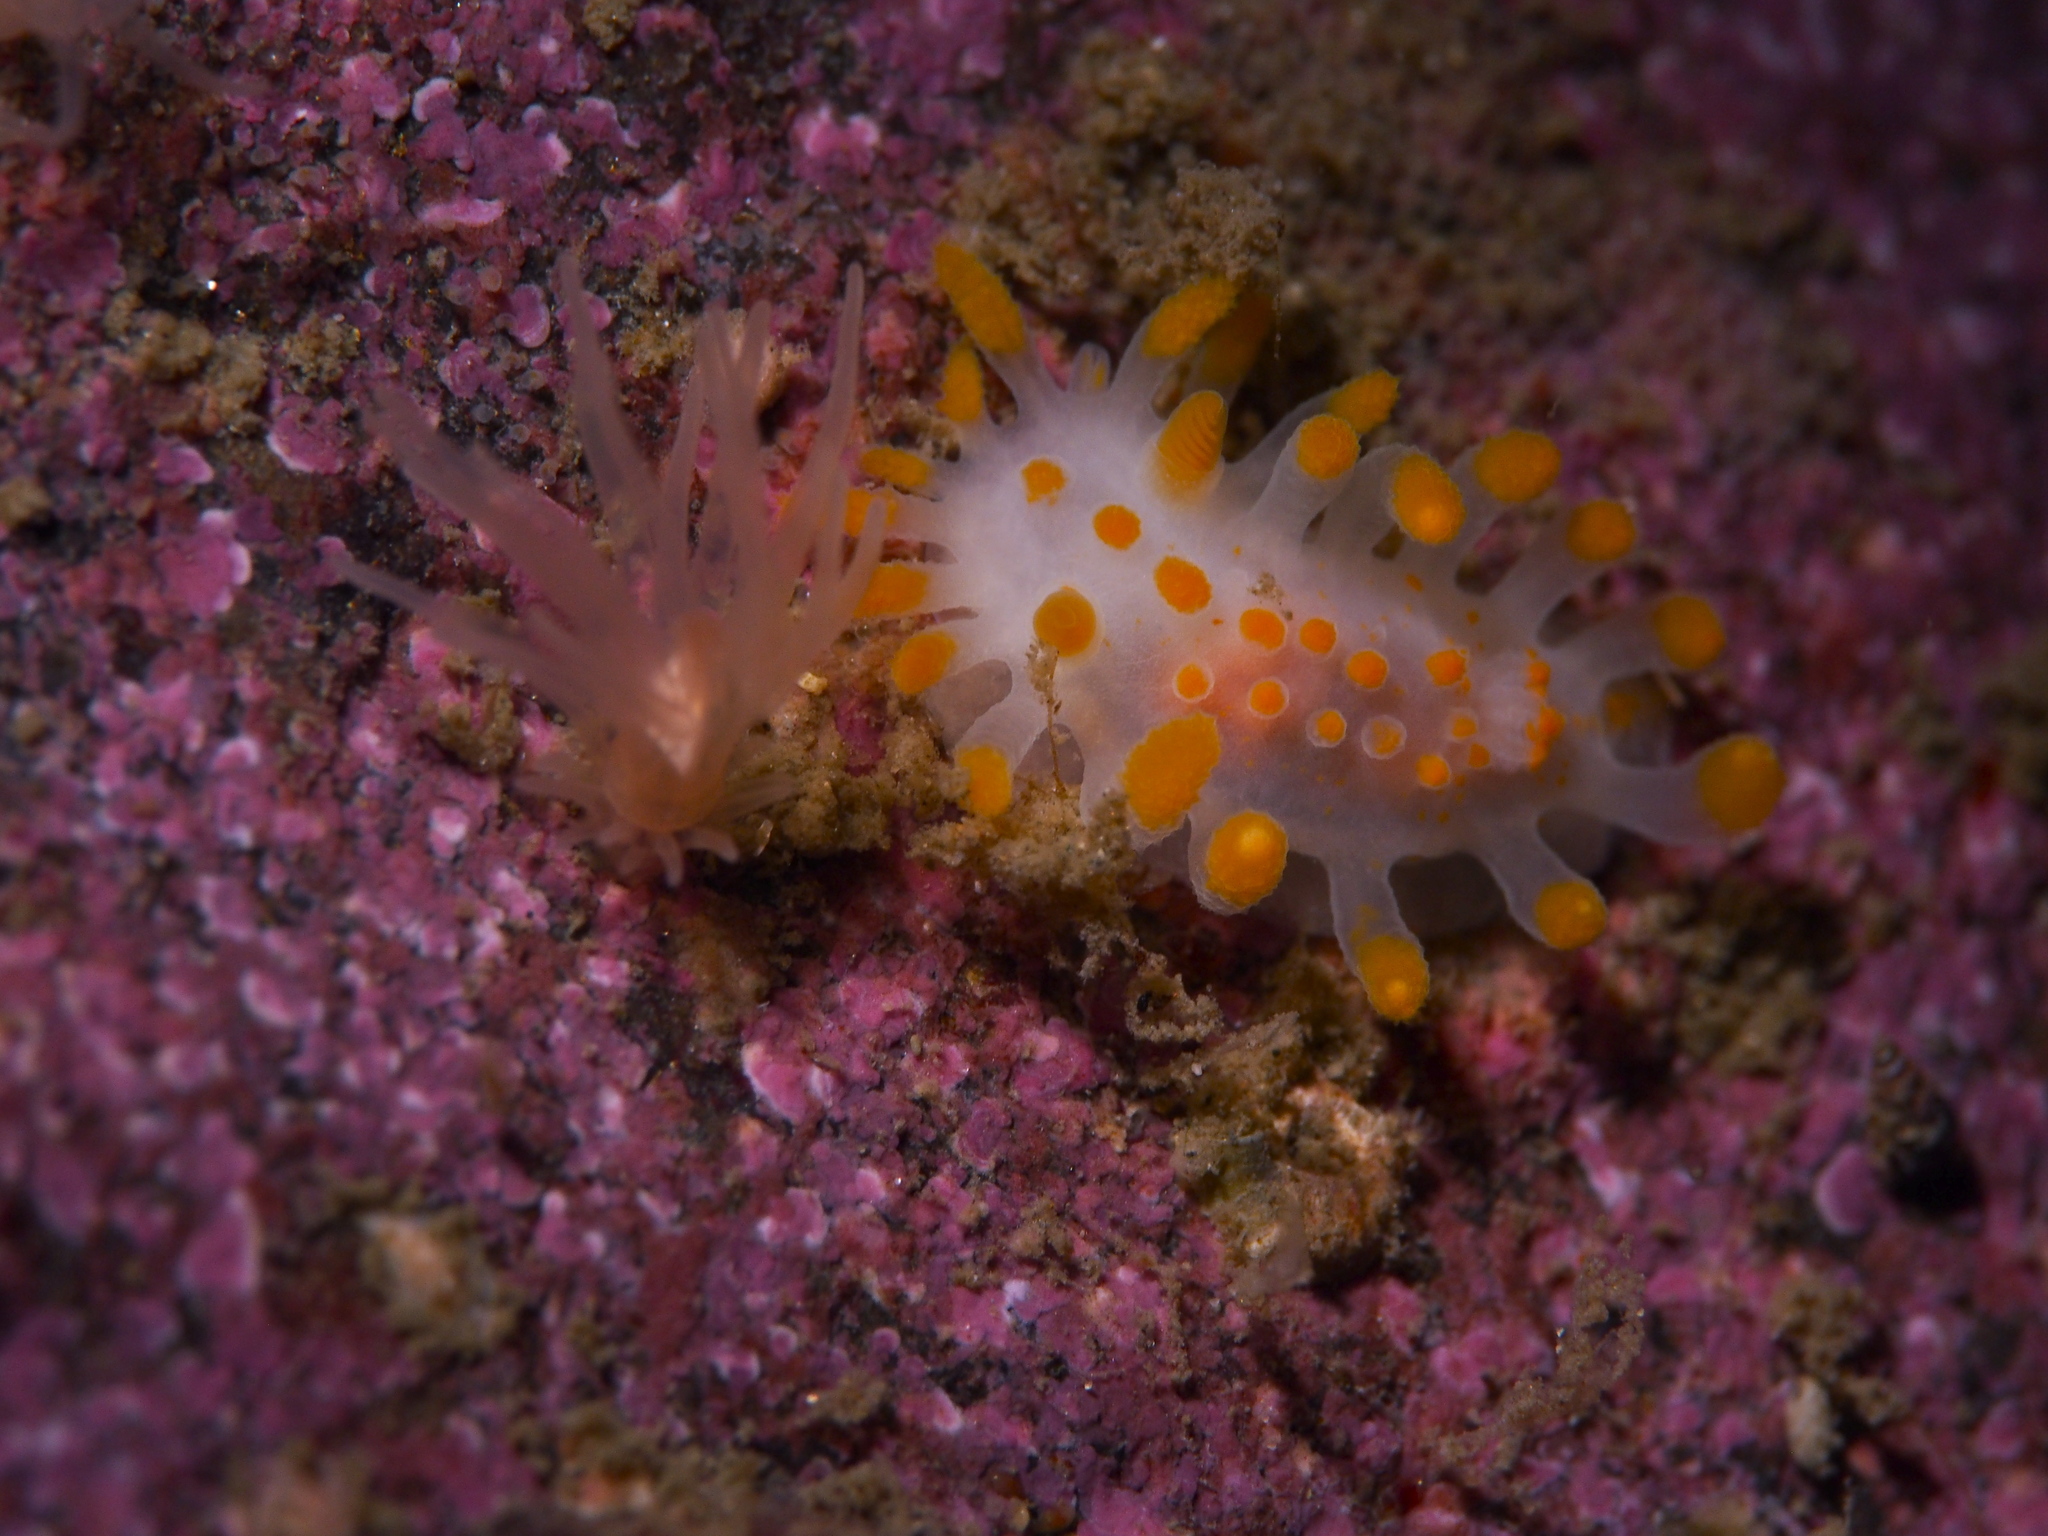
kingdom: Animalia
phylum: Mollusca
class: Gastropoda
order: Nudibranchia
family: Polyceridae
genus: Limacia
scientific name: Limacia clavigera
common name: Orange-clubbed sea slug
